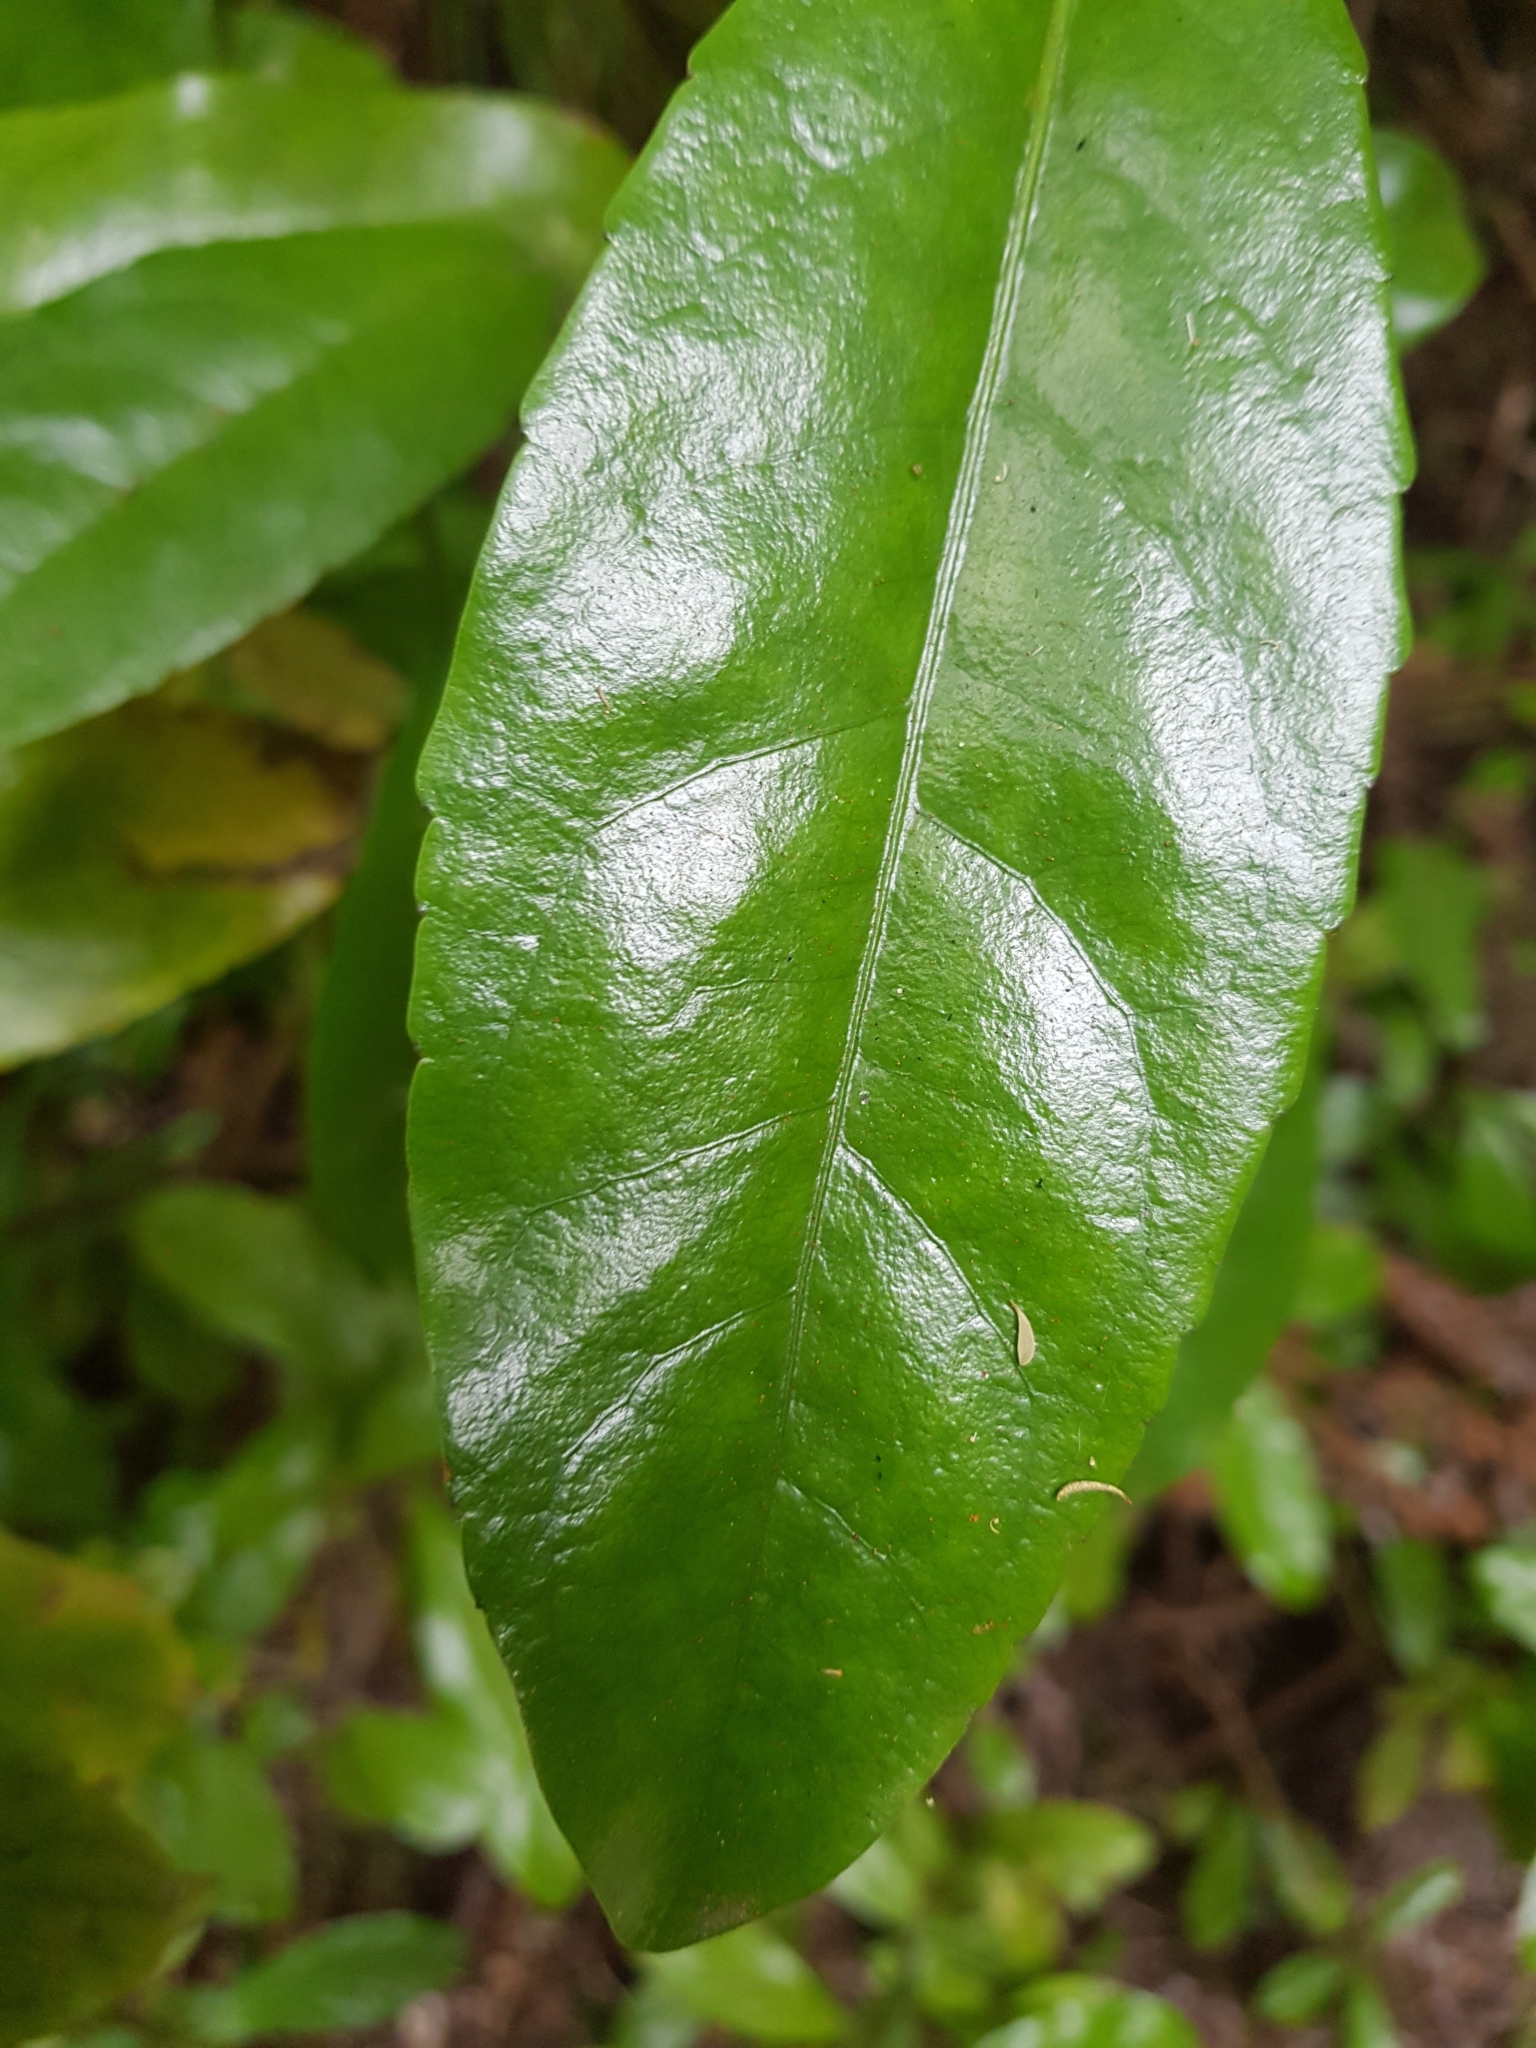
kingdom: Plantae
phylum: Tracheophyta
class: Magnoliopsida
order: Asterales
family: Alseuosmiaceae
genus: Alseuosmia
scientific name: Alseuosmia macrophylla
